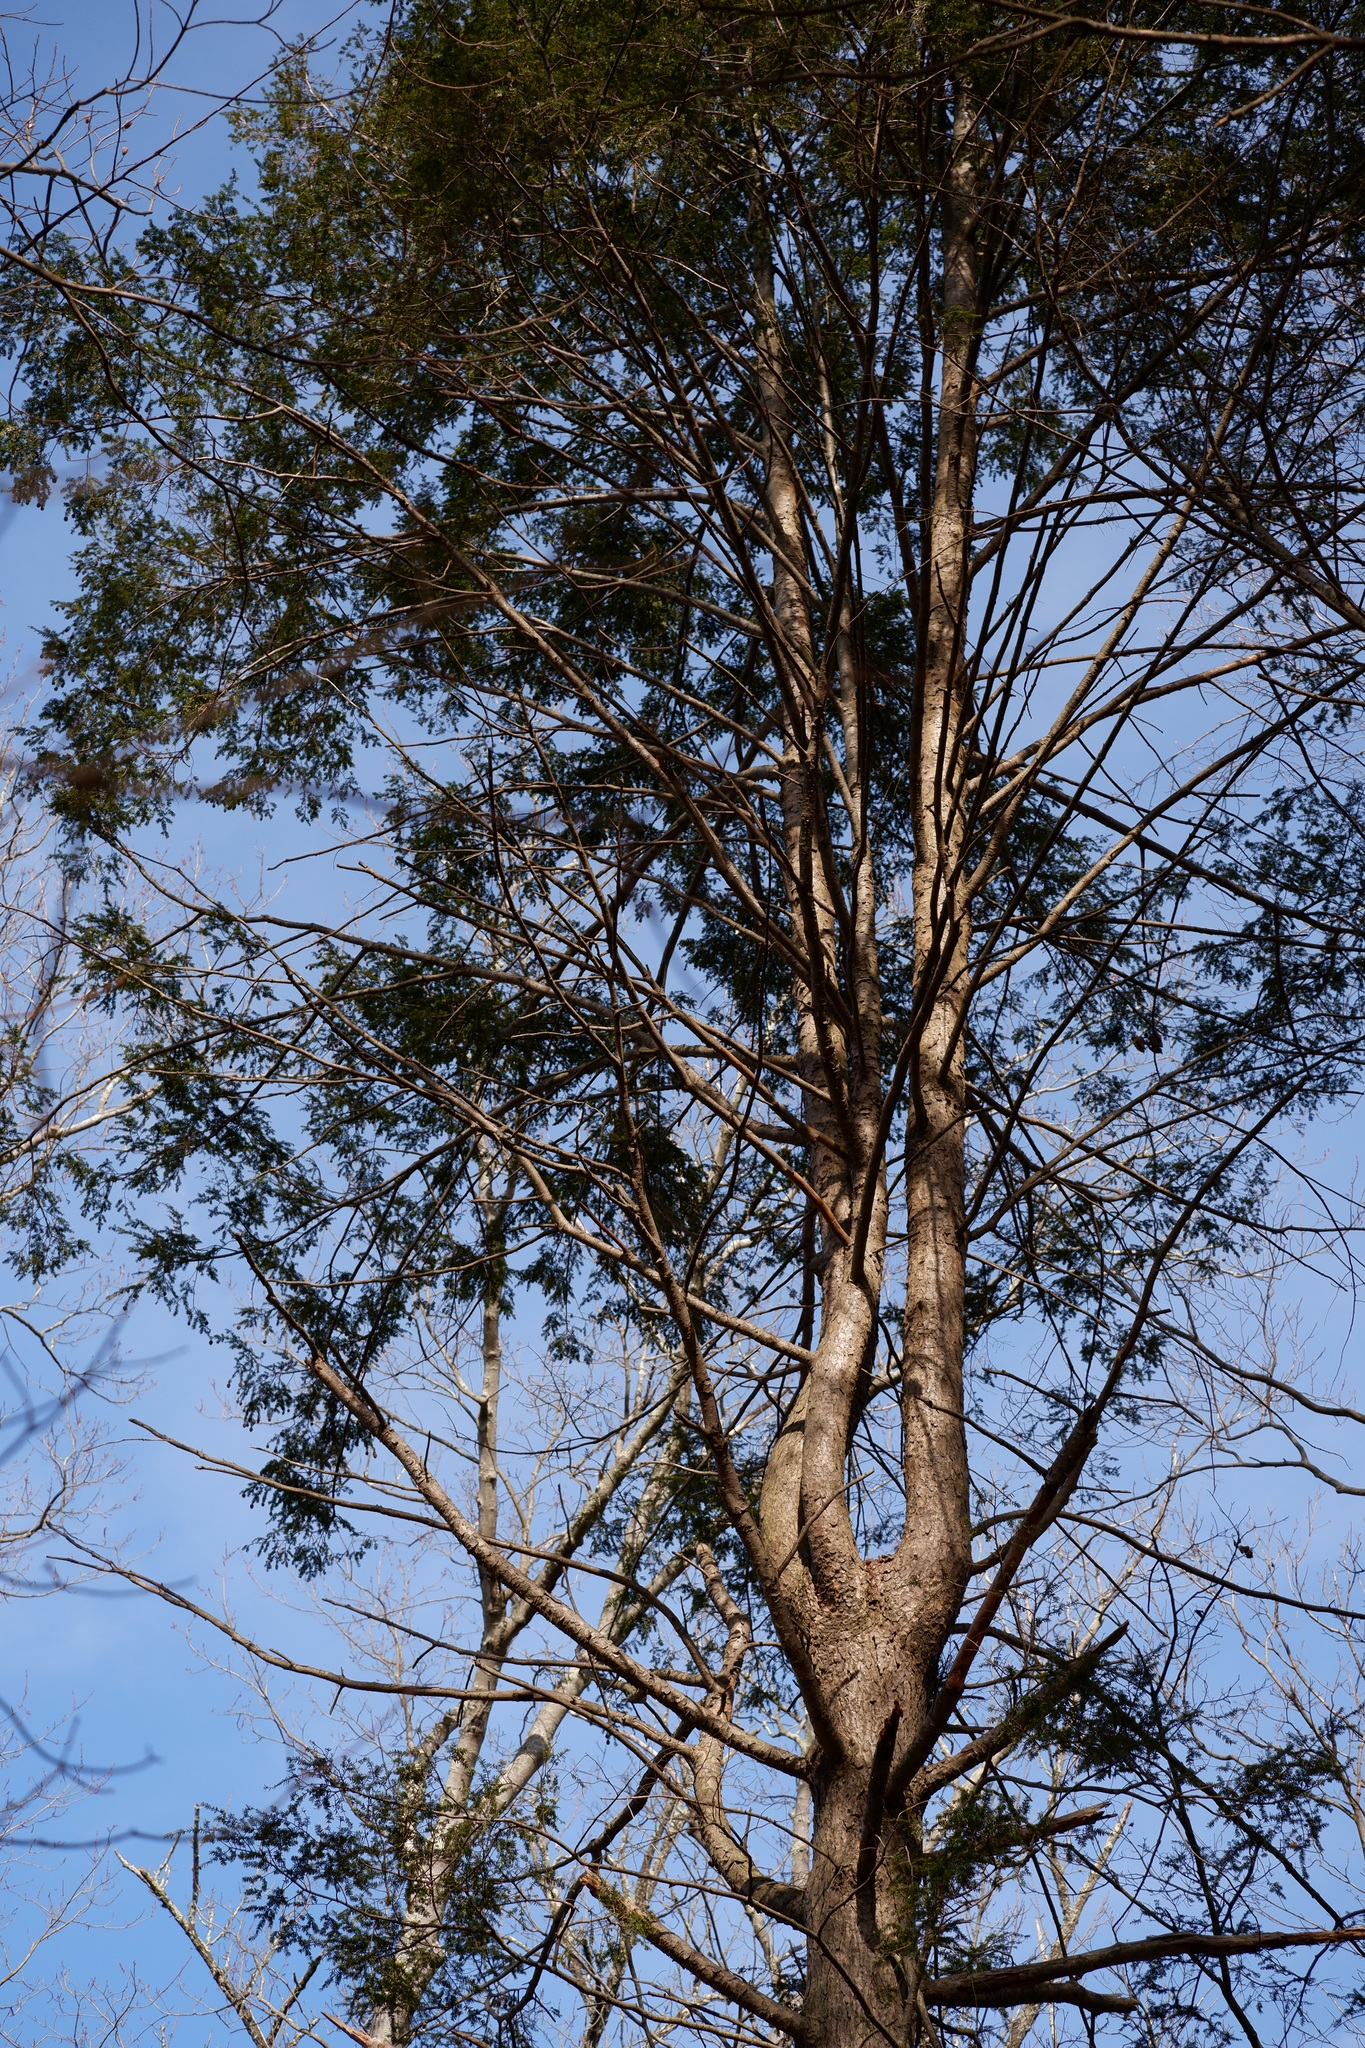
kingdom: Plantae
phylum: Tracheophyta
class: Pinopsida
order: Pinales
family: Pinaceae
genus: Tsuga
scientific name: Tsuga canadensis
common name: Eastern hemlock
